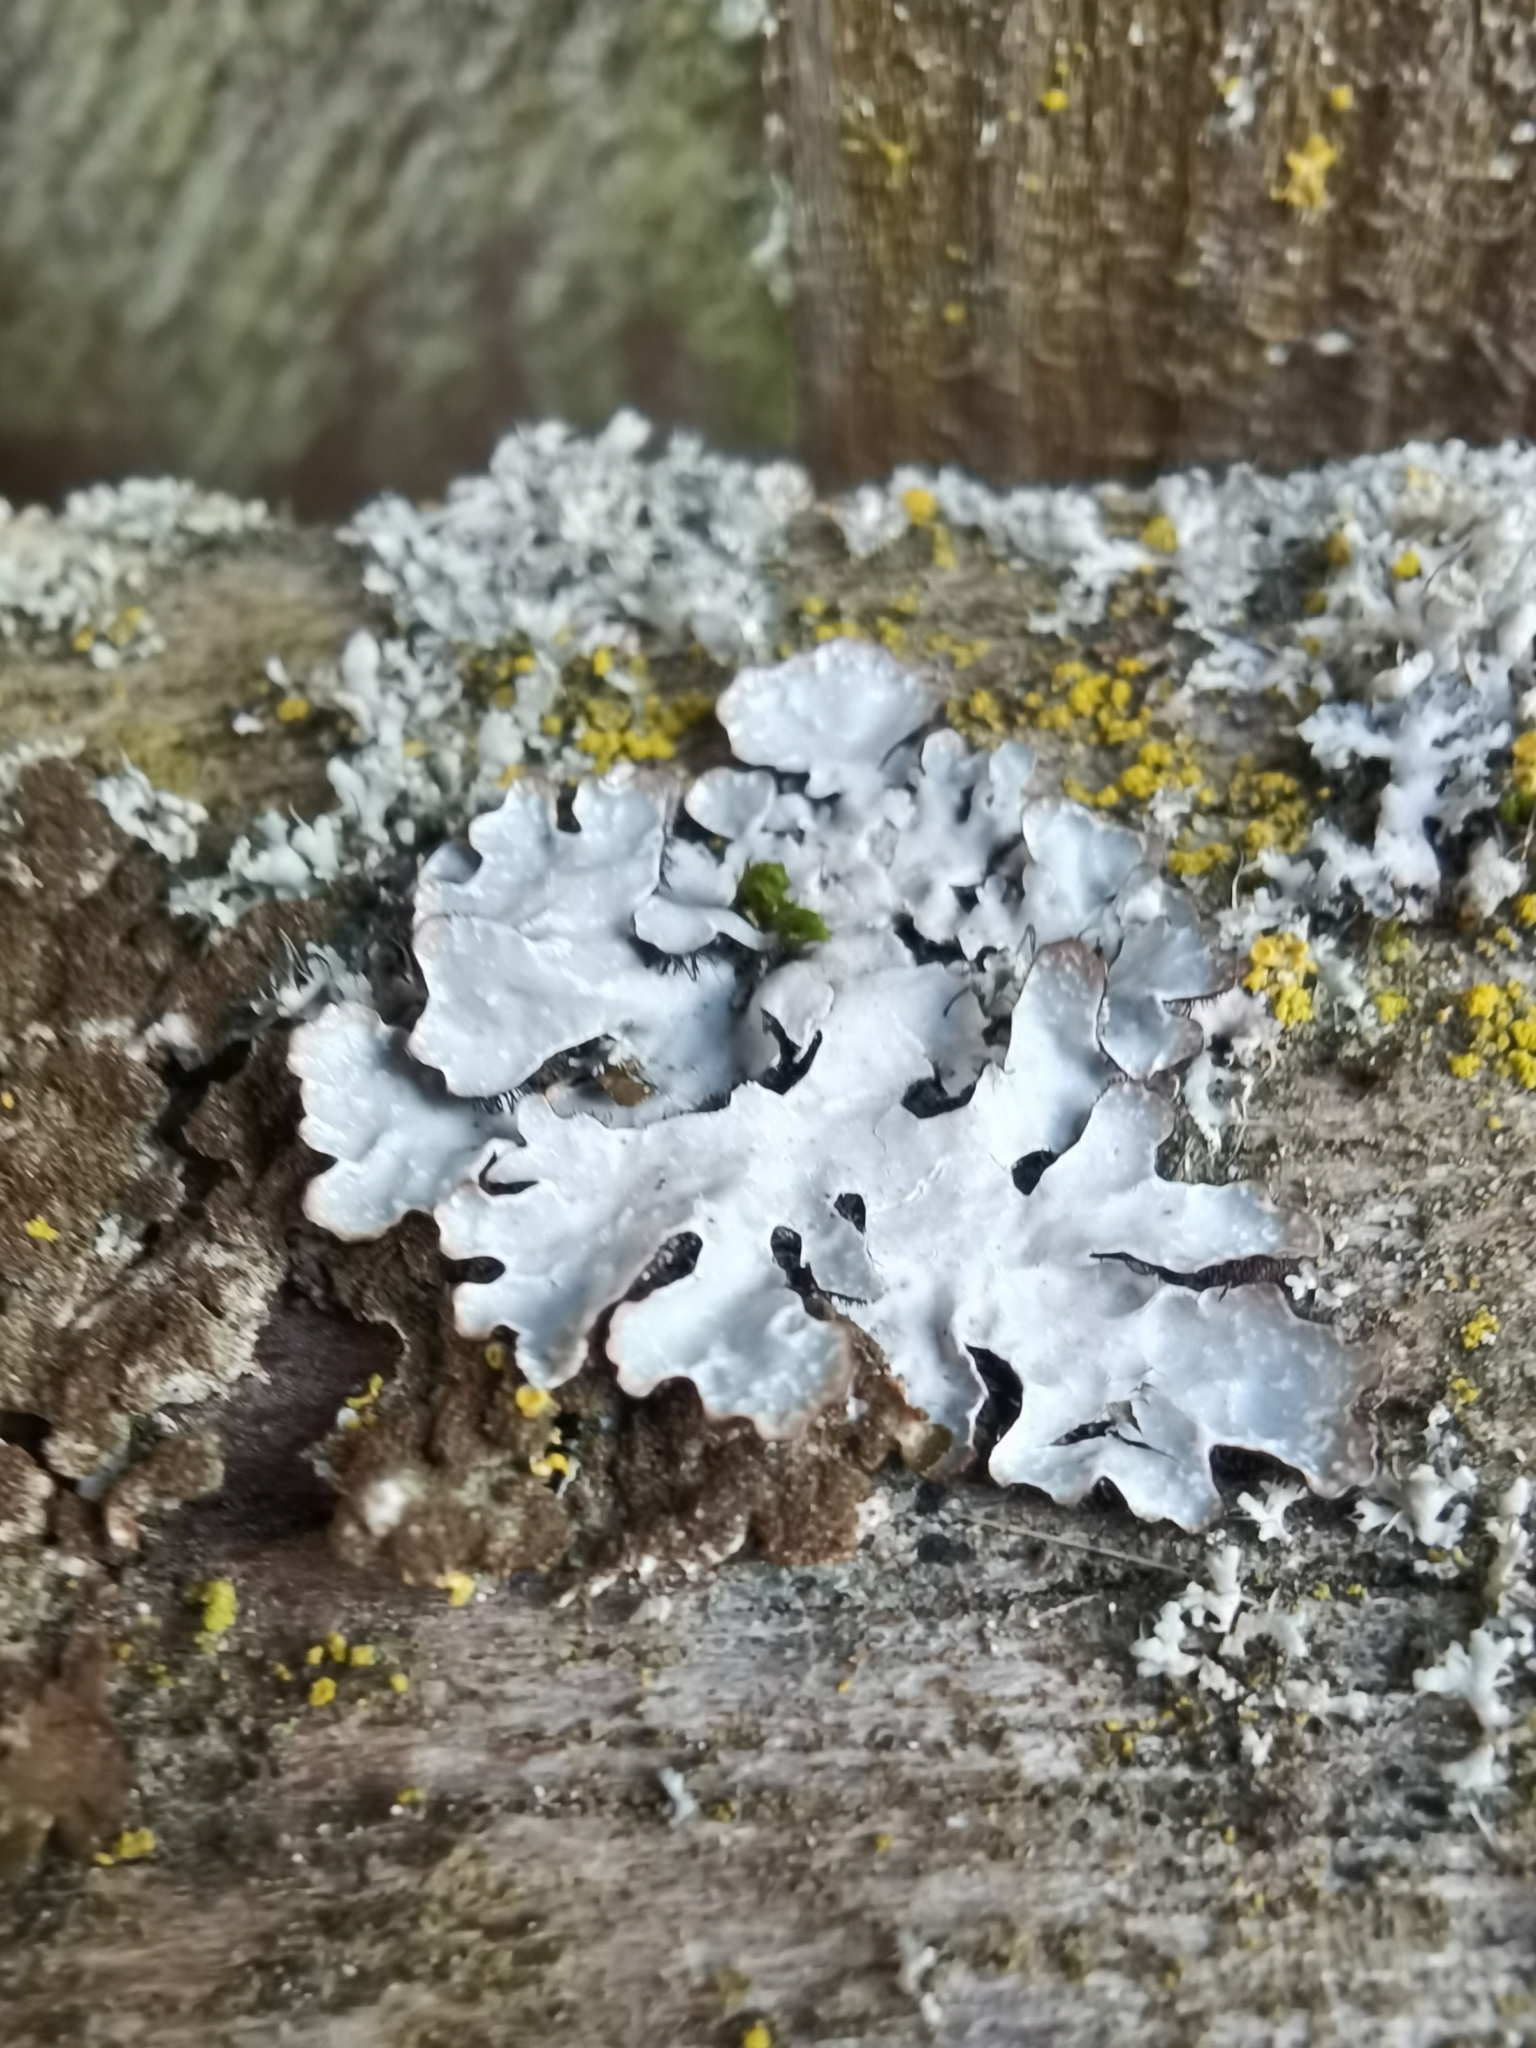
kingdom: Fungi
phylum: Ascomycota
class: Lecanoromycetes
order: Lecanorales
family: Parmeliaceae
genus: Parmelia
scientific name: Parmelia sulcata
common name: Netted shield lichen
